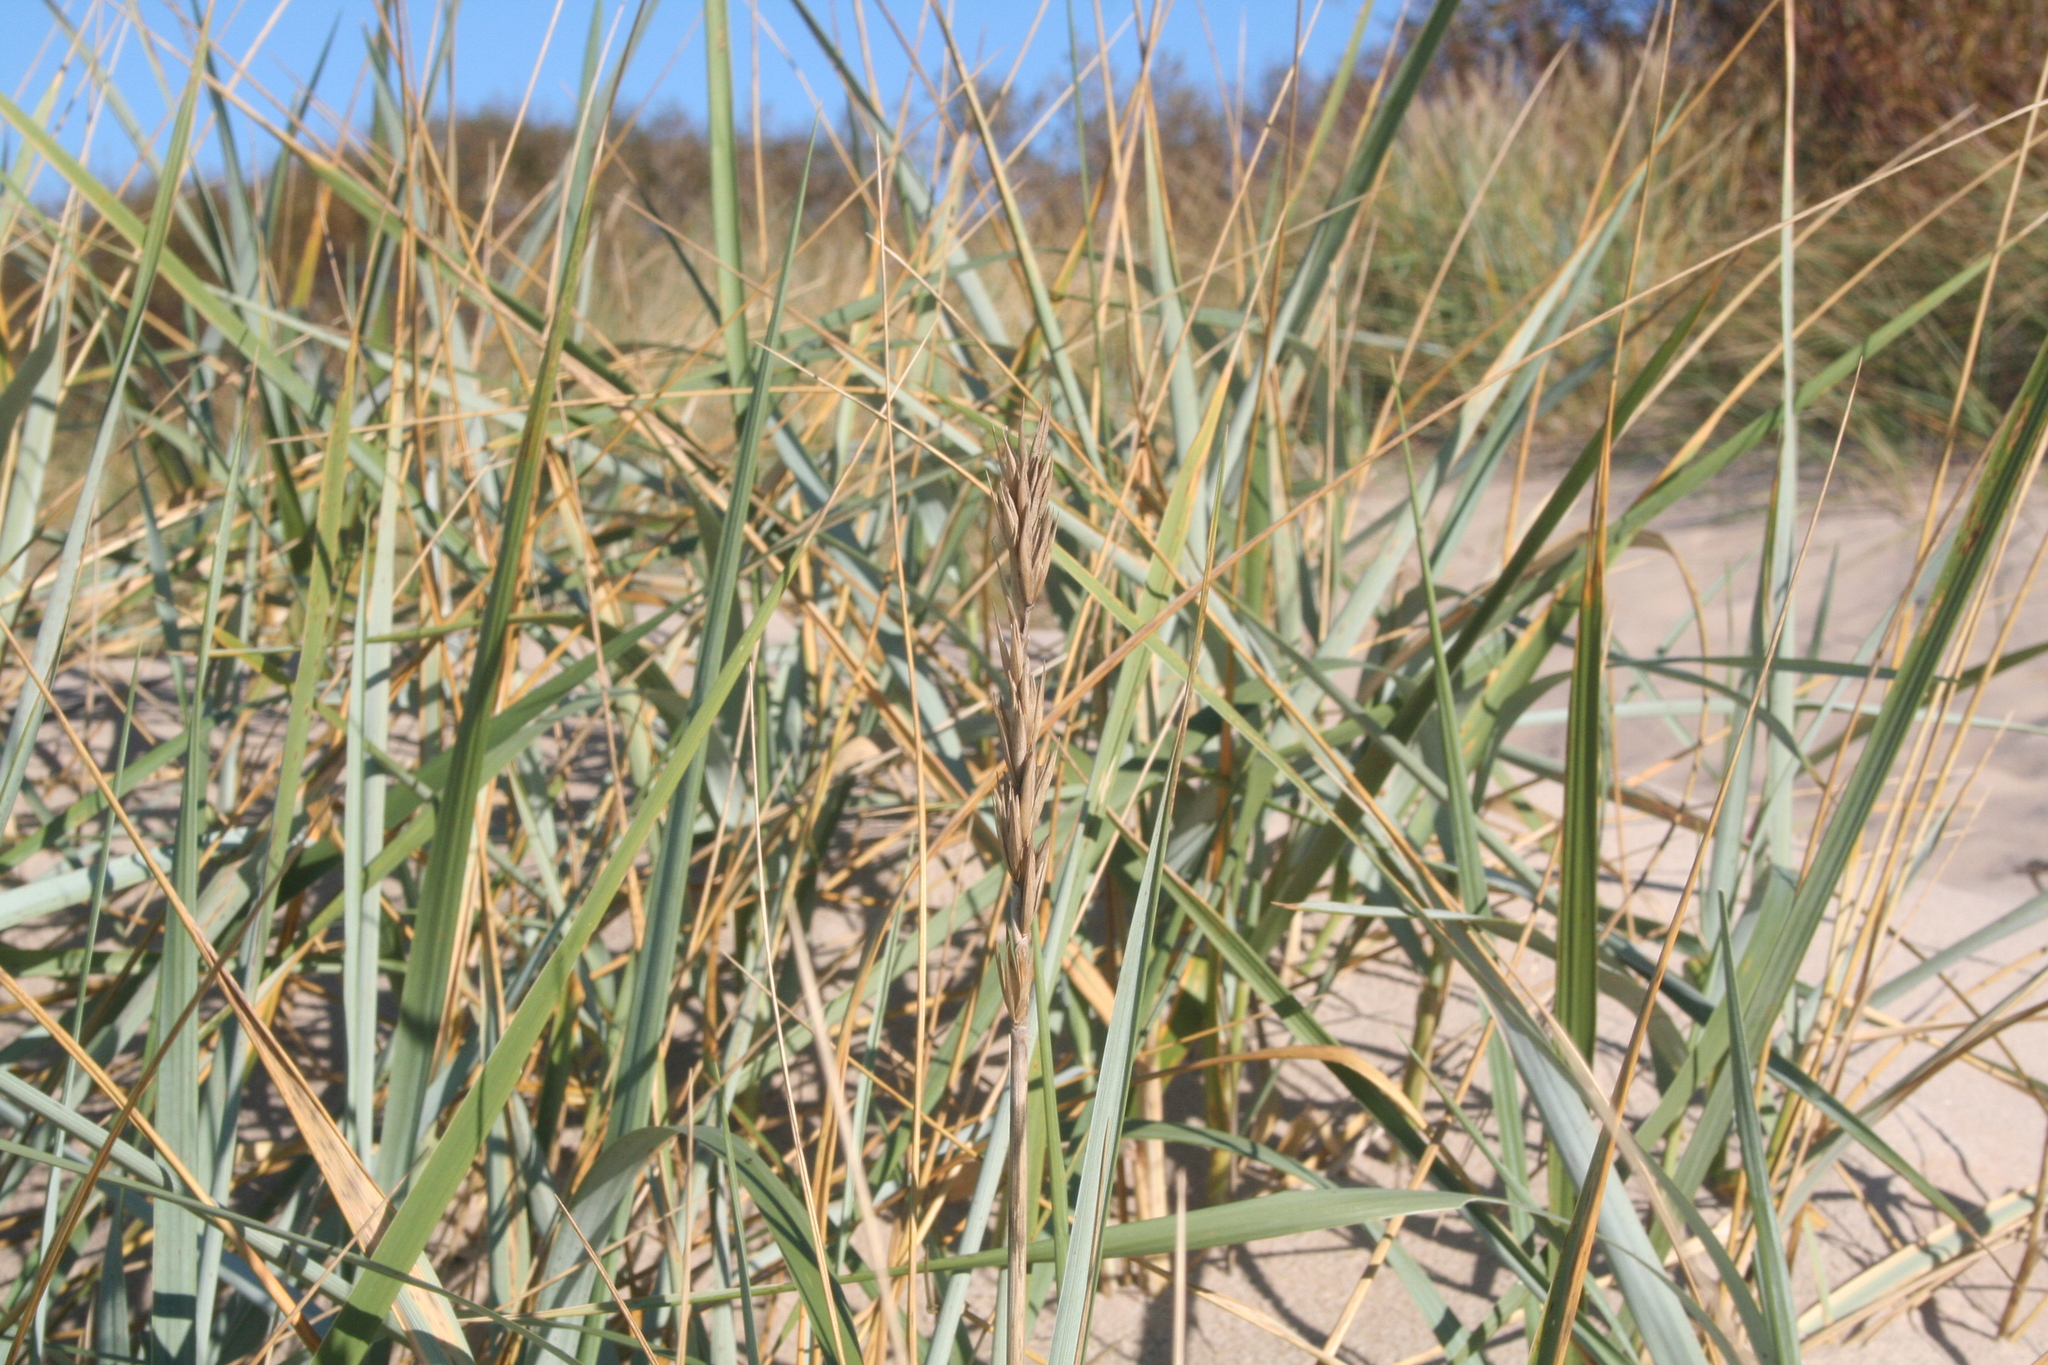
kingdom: Plantae
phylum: Tracheophyta
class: Liliopsida
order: Poales
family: Poaceae
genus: Leymus
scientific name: Leymus arenarius
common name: Lyme-grass
